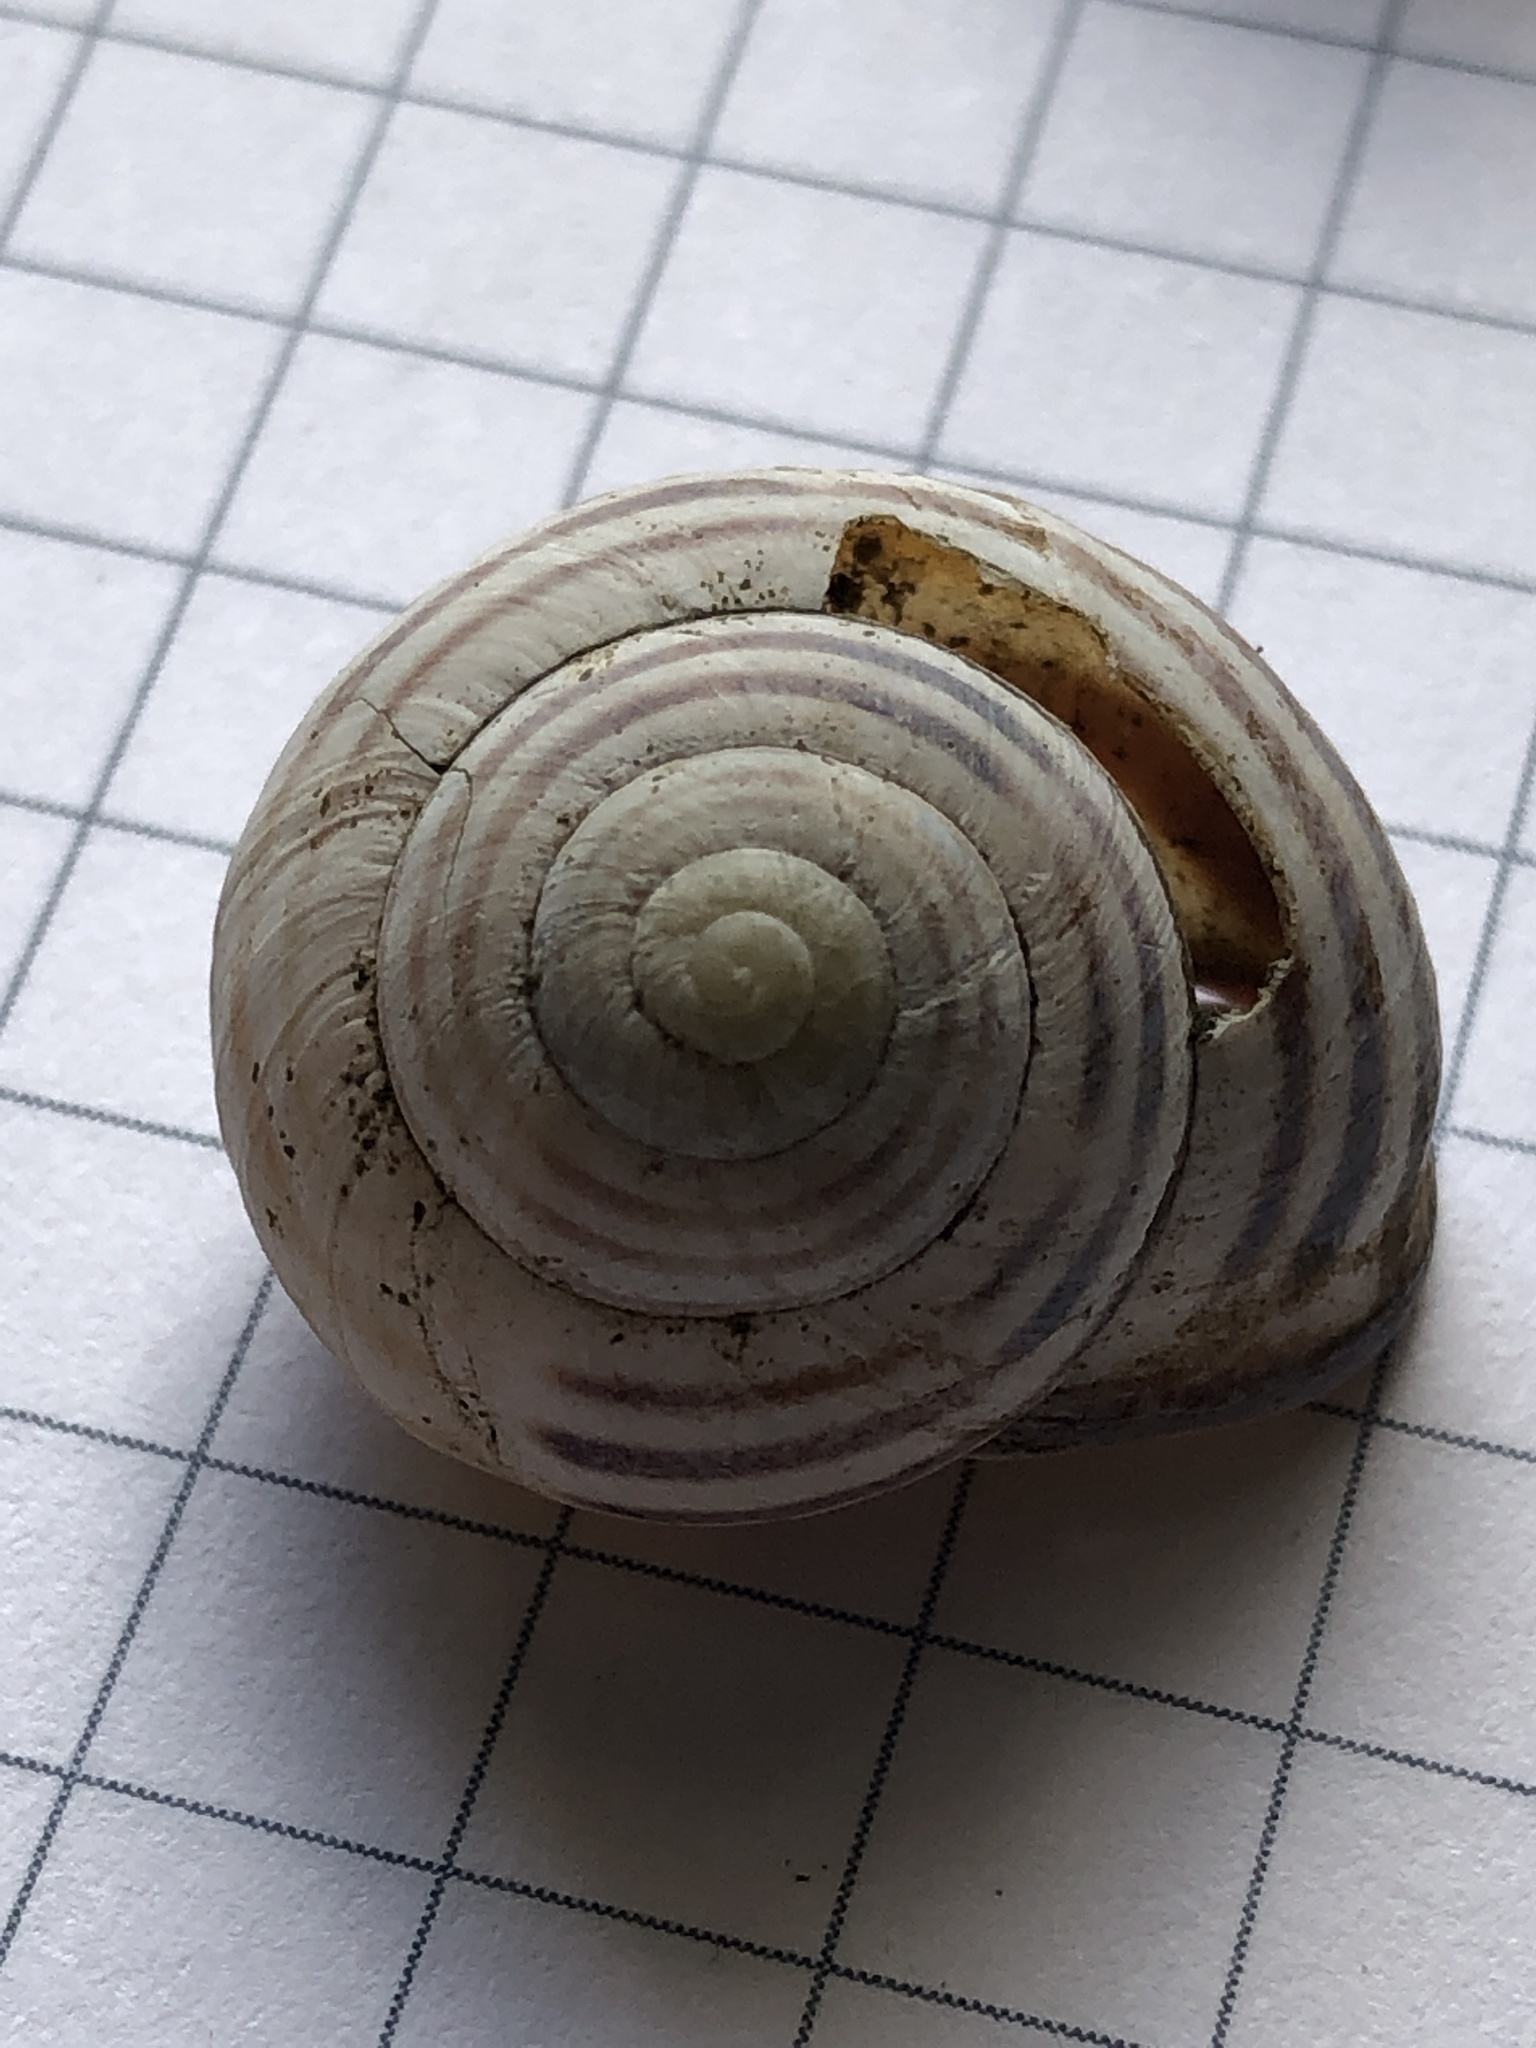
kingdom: Animalia
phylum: Mollusca
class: Gastropoda
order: Stylommatophora
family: Helicidae
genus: Cepaea
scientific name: Cepaea nemoralis
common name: Grovesnail
